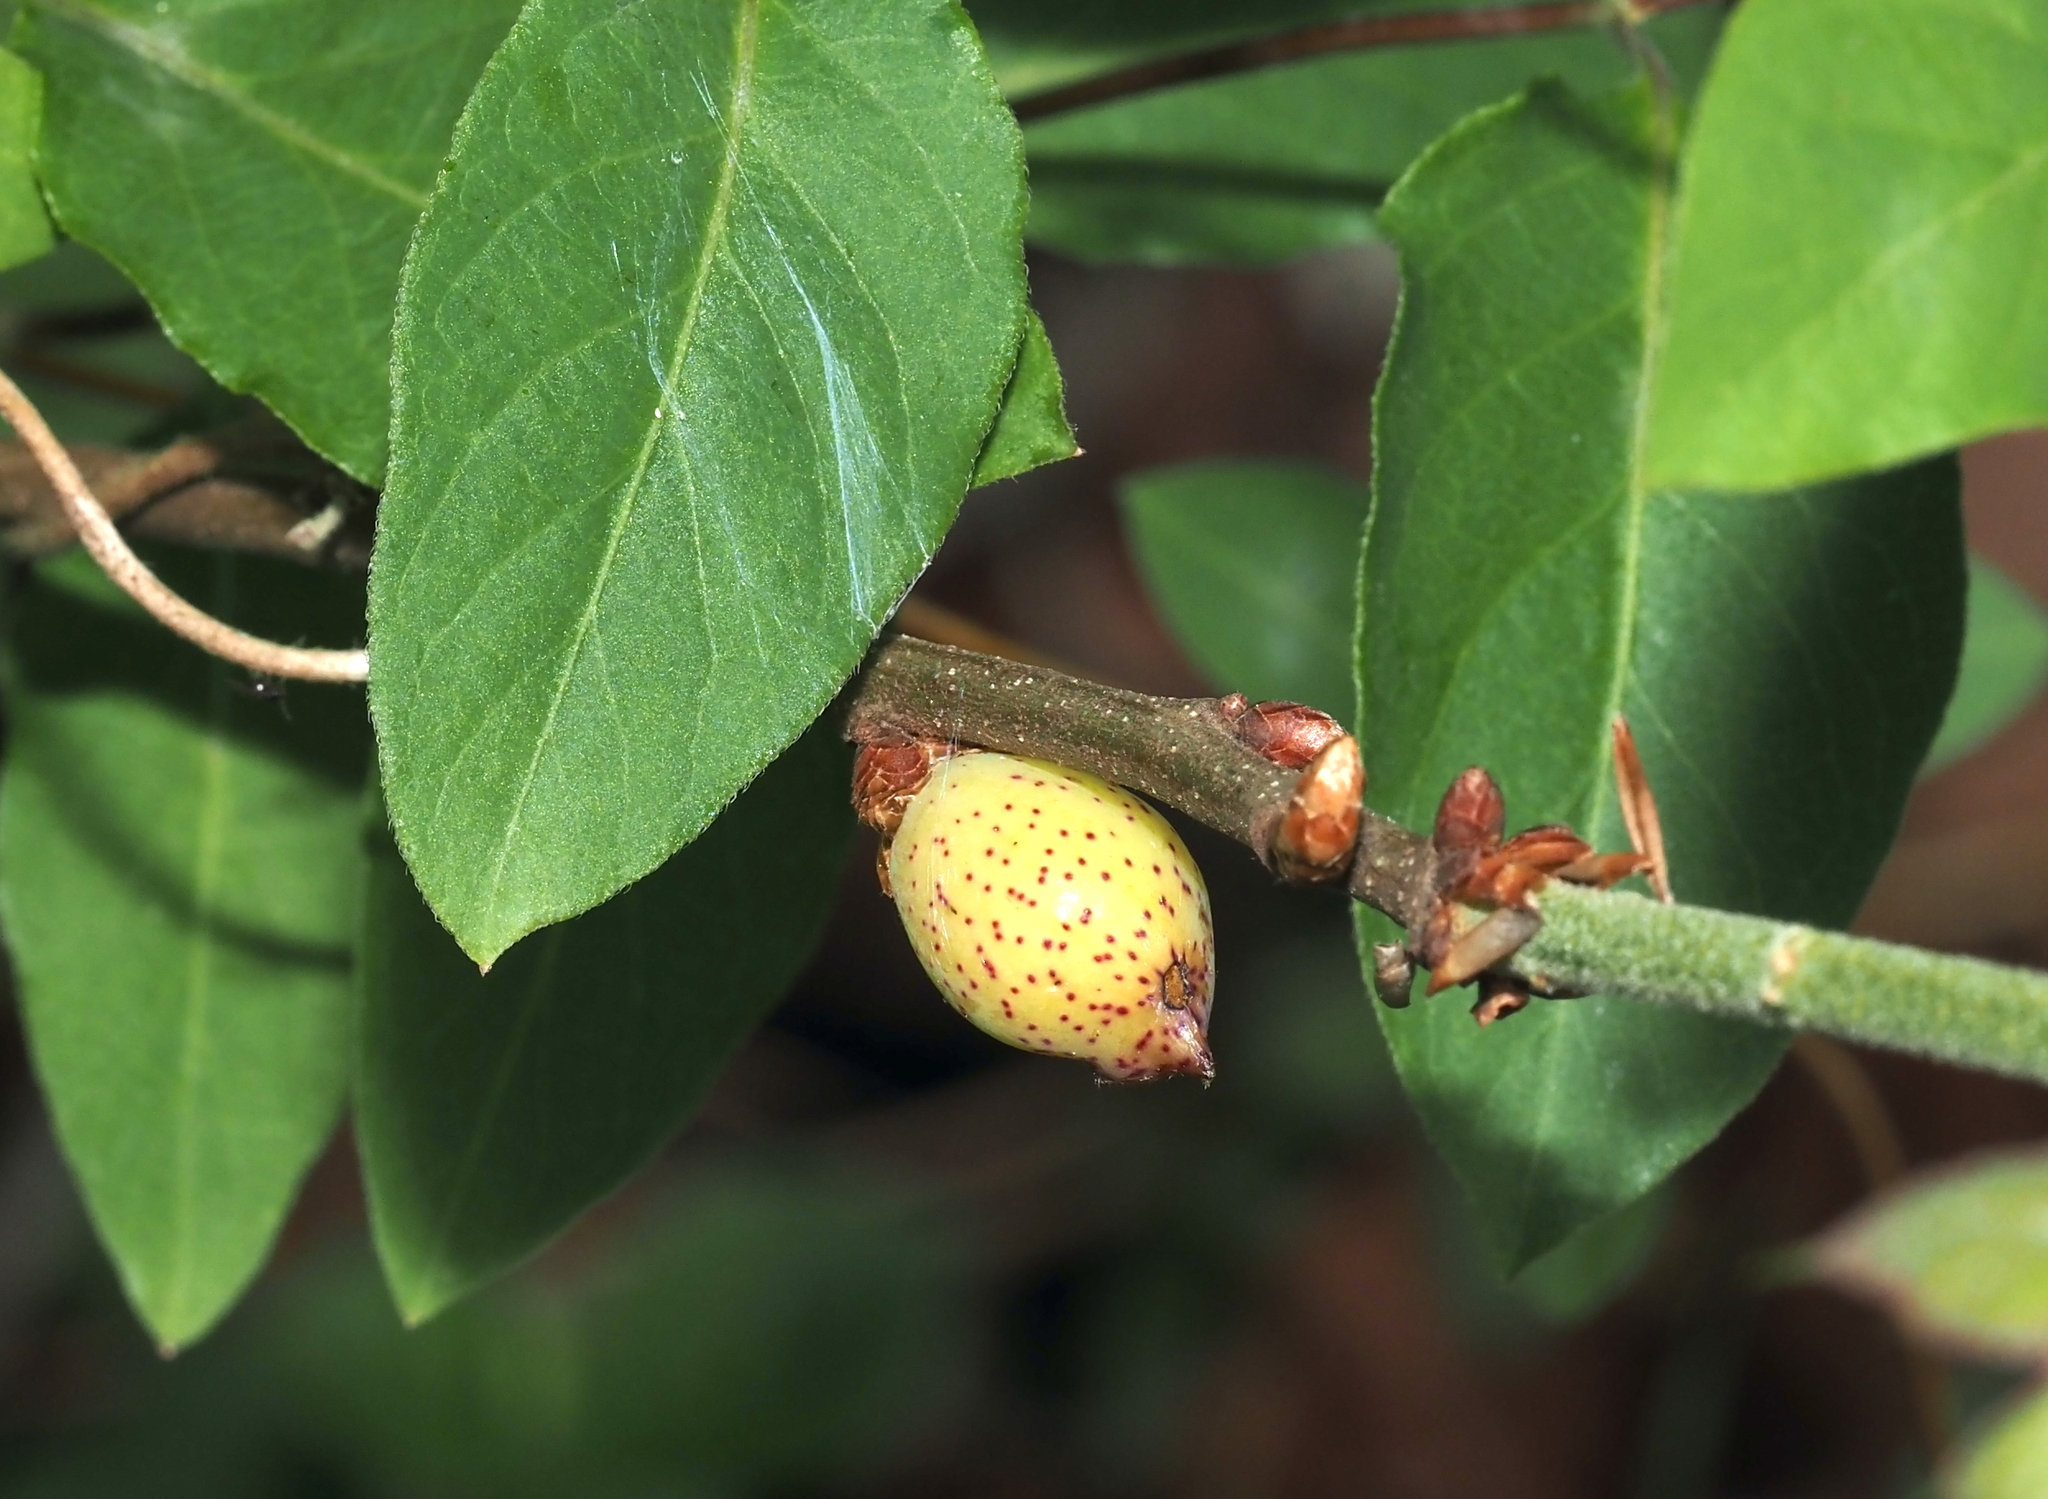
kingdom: Animalia
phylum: Arthropoda
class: Insecta
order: Hymenoptera
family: Cynipidae
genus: Amphibolips
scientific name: Amphibolips
